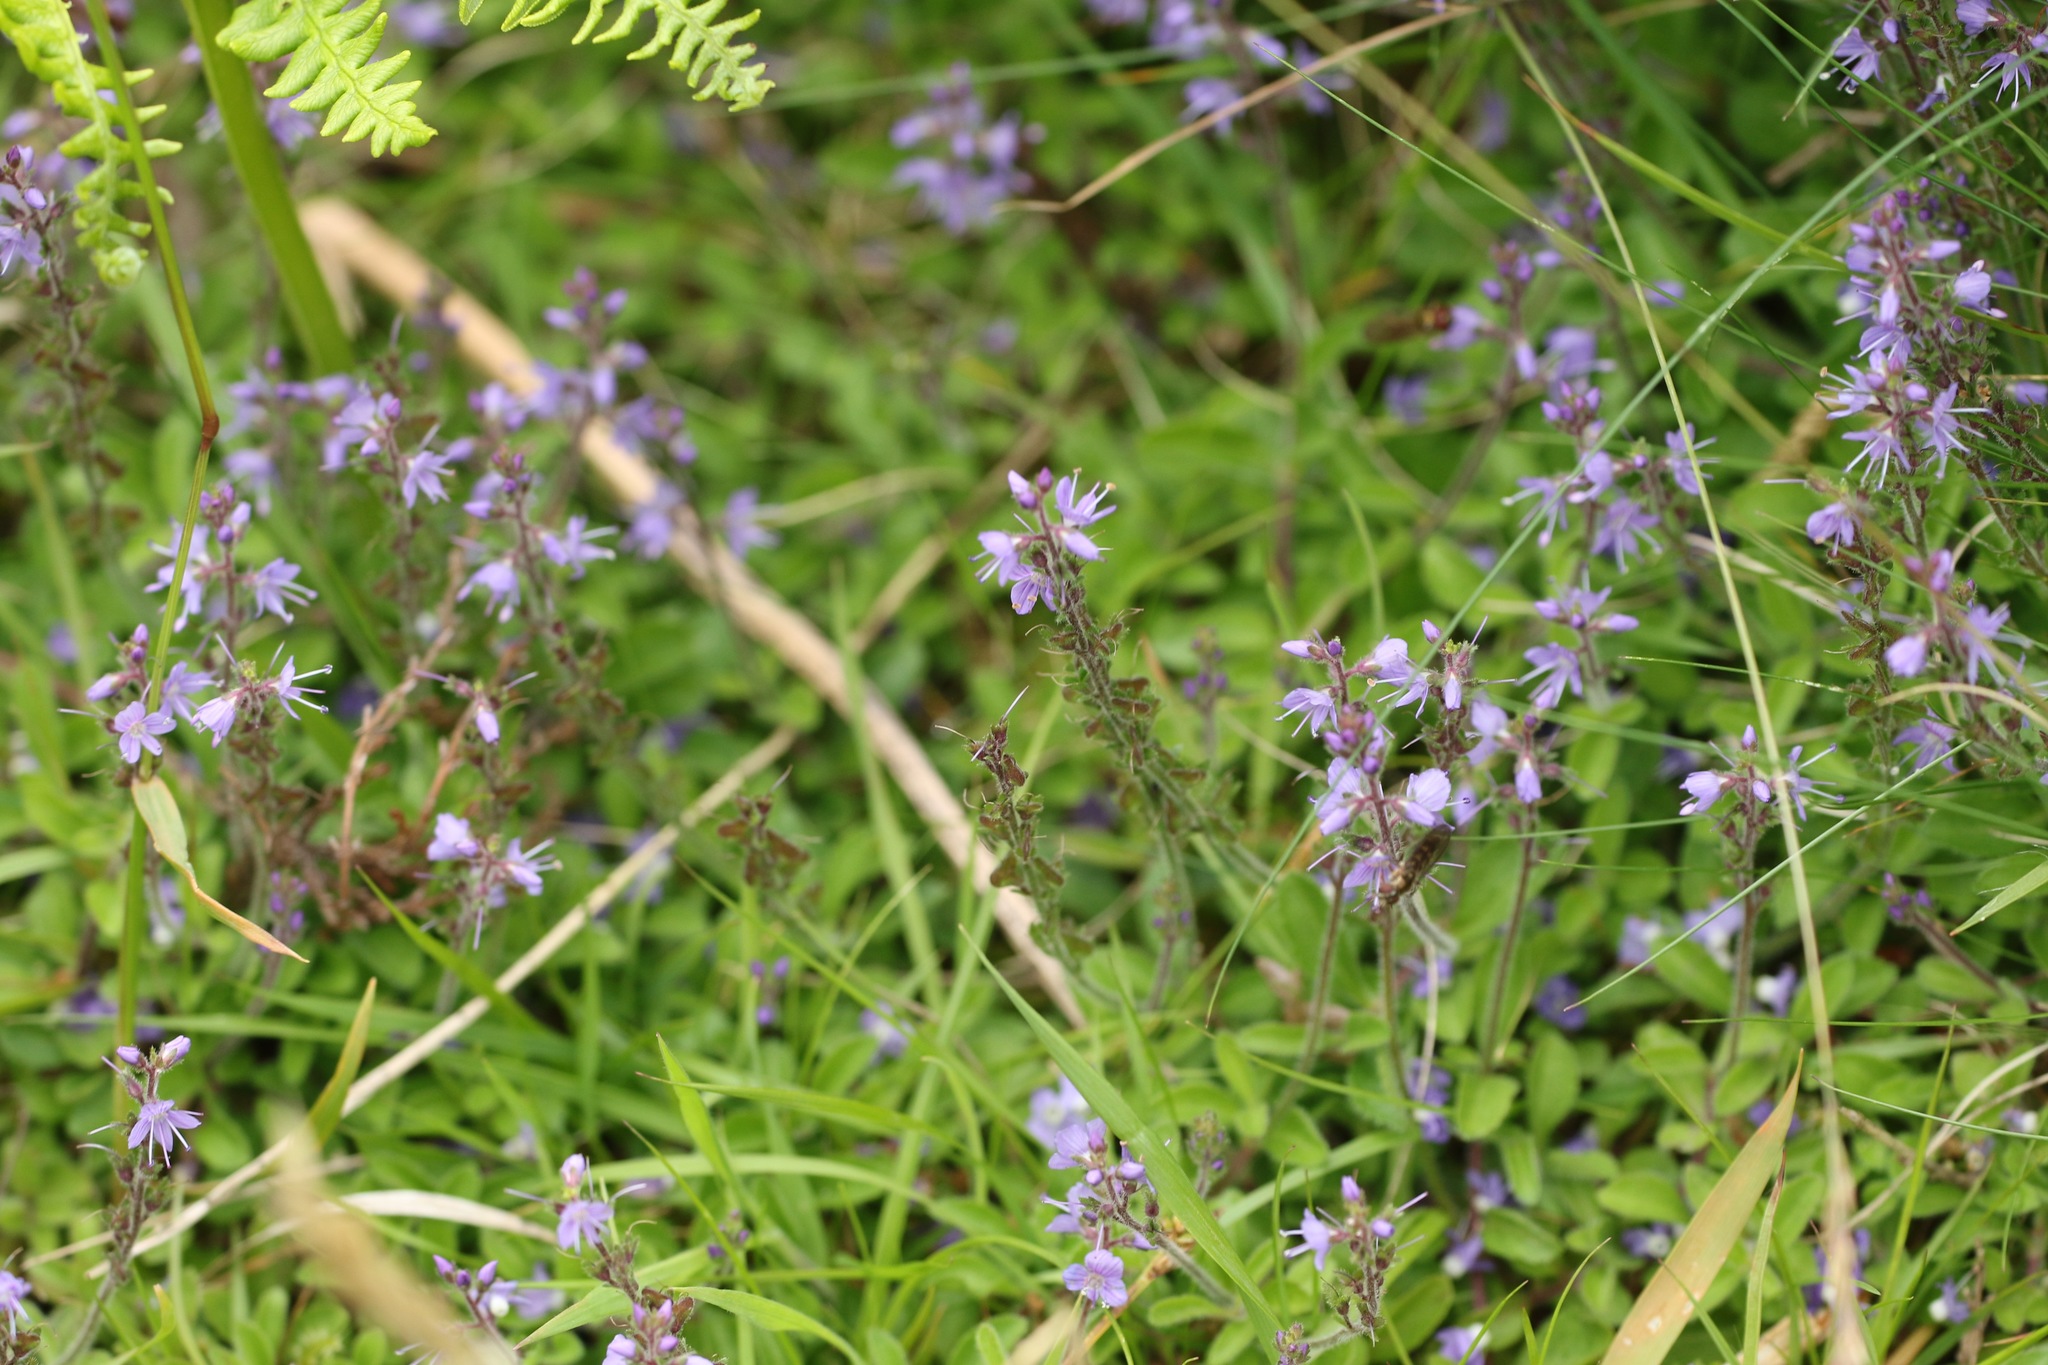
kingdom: Plantae
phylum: Tracheophyta
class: Magnoliopsida
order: Lamiales
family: Plantaginaceae
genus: Veronica
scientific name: Veronica officinalis
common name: Common speedwell
